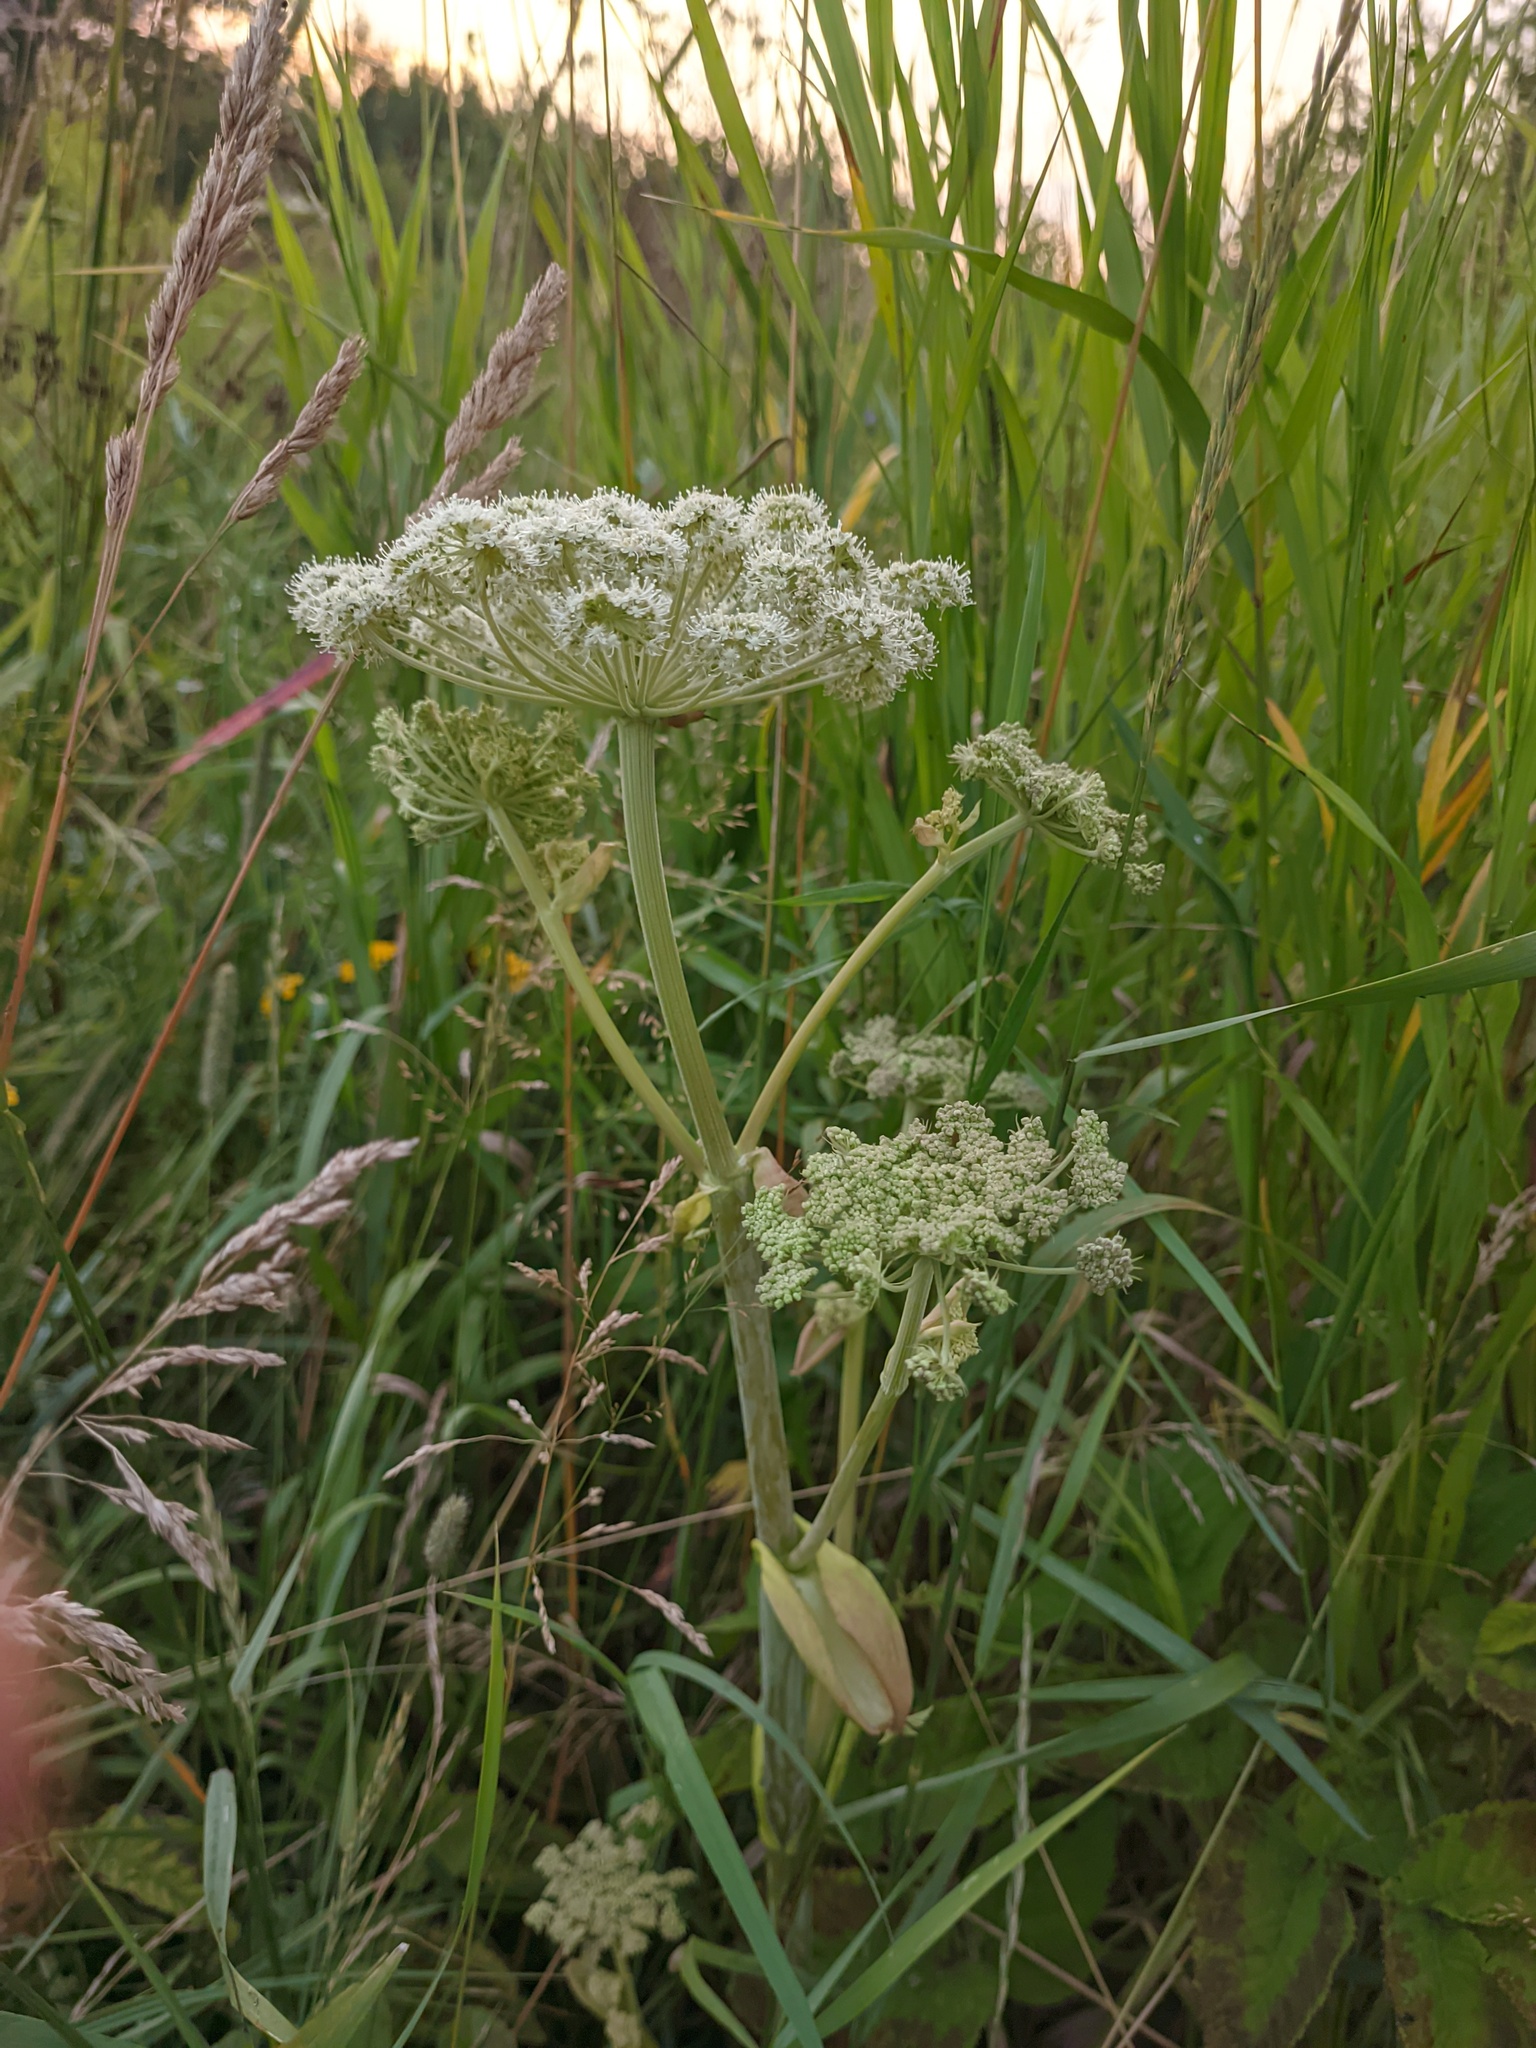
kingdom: Plantae
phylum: Tracheophyta
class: Magnoliopsida
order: Apiales
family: Apiaceae
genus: Angelica
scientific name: Angelica sylvestris
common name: Wild angelica
